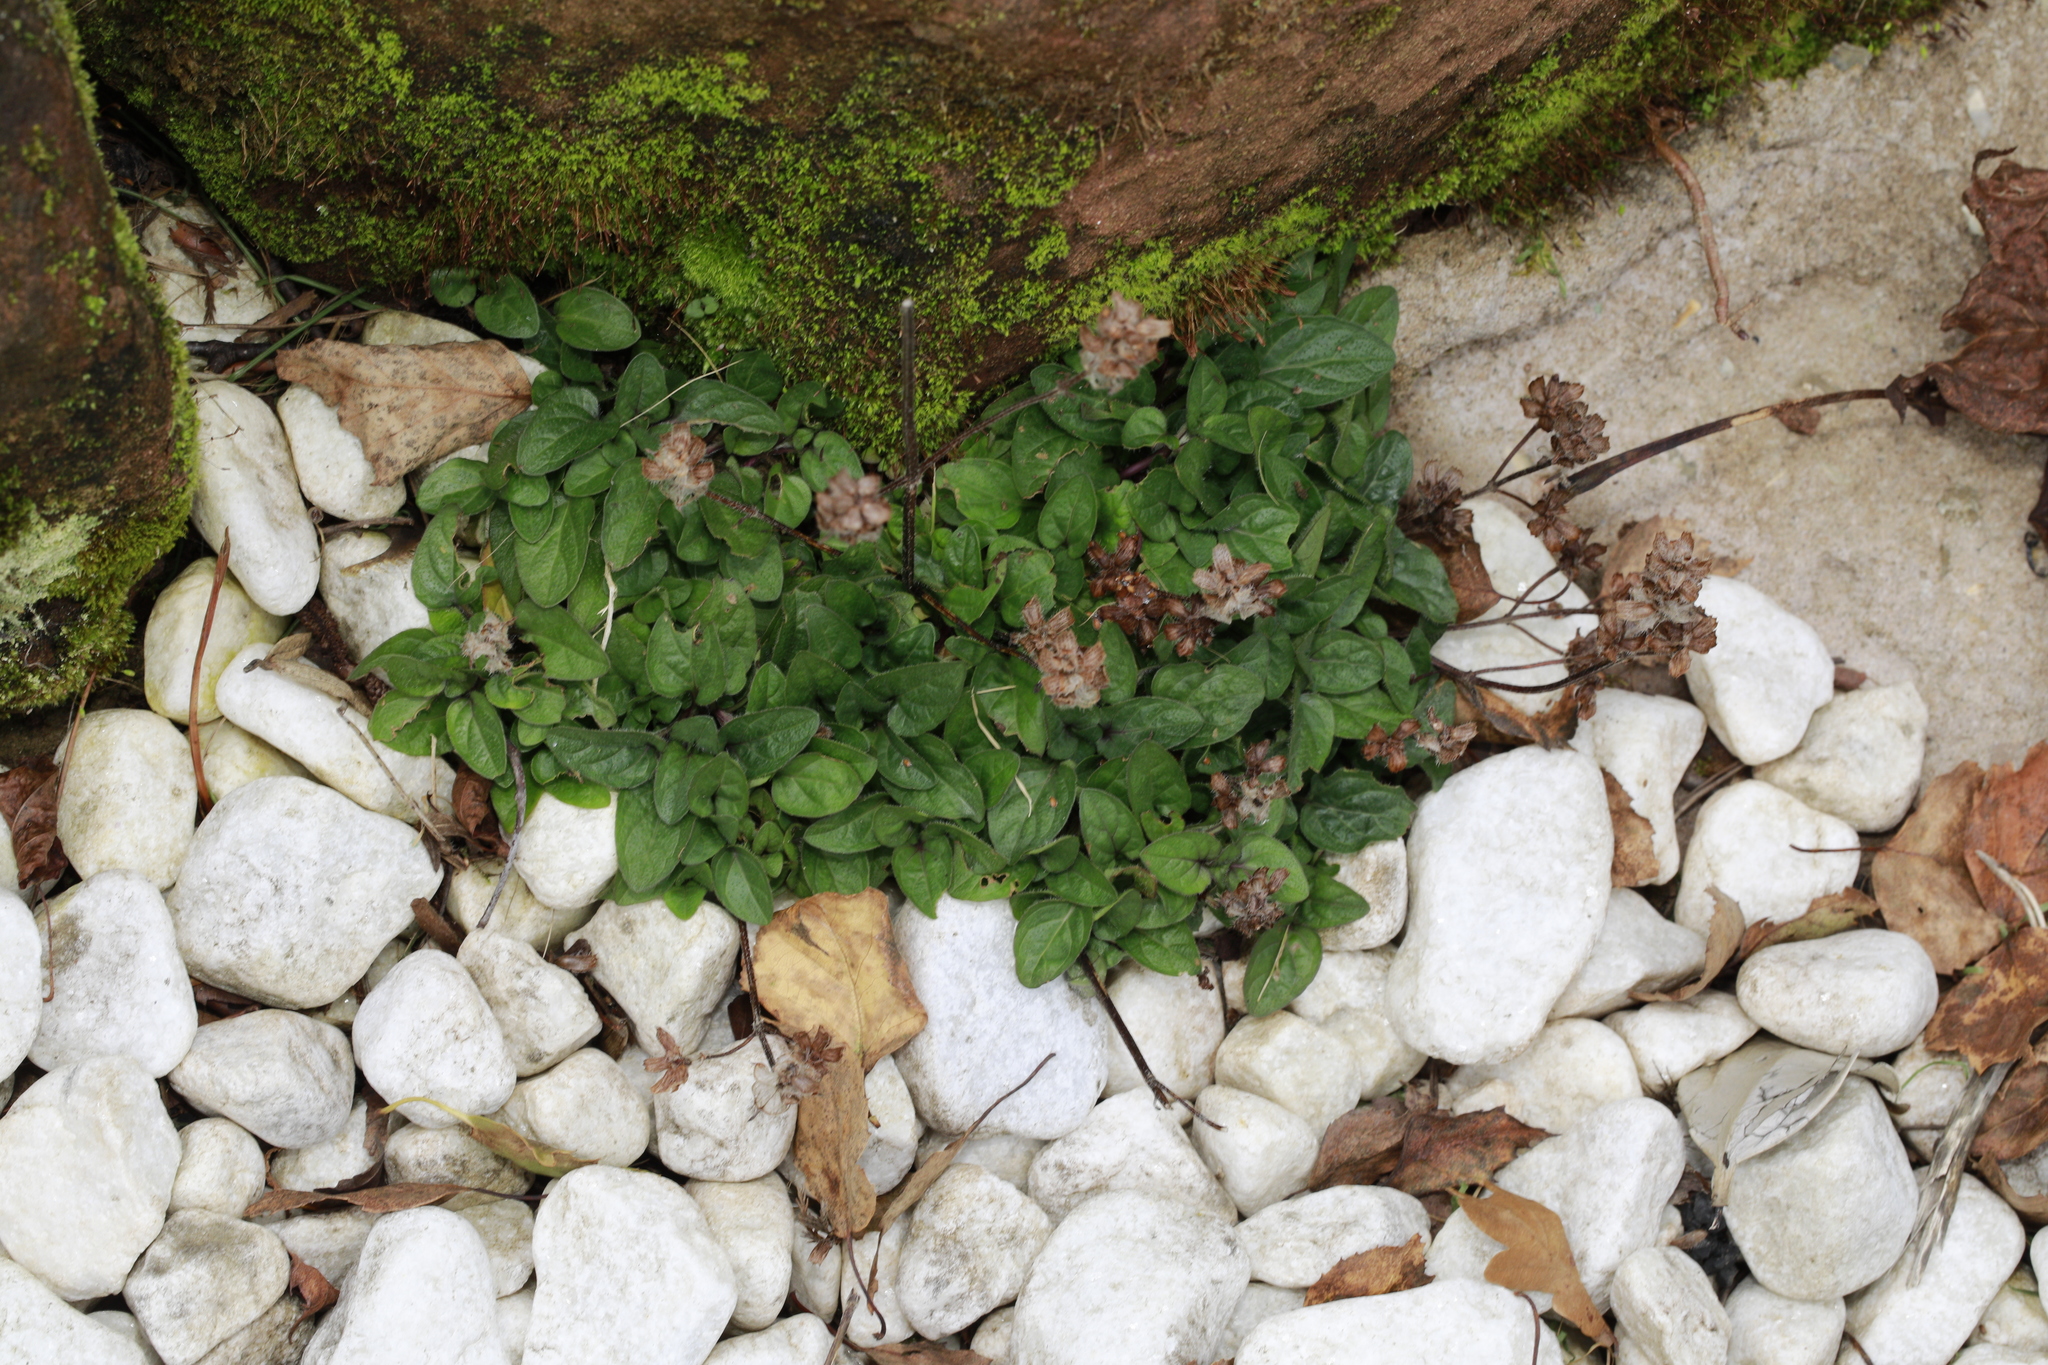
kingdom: Plantae
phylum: Tracheophyta
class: Magnoliopsida
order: Lamiales
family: Lamiaceae
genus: Prunella
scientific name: Prunella vulgaris
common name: Heal-all
